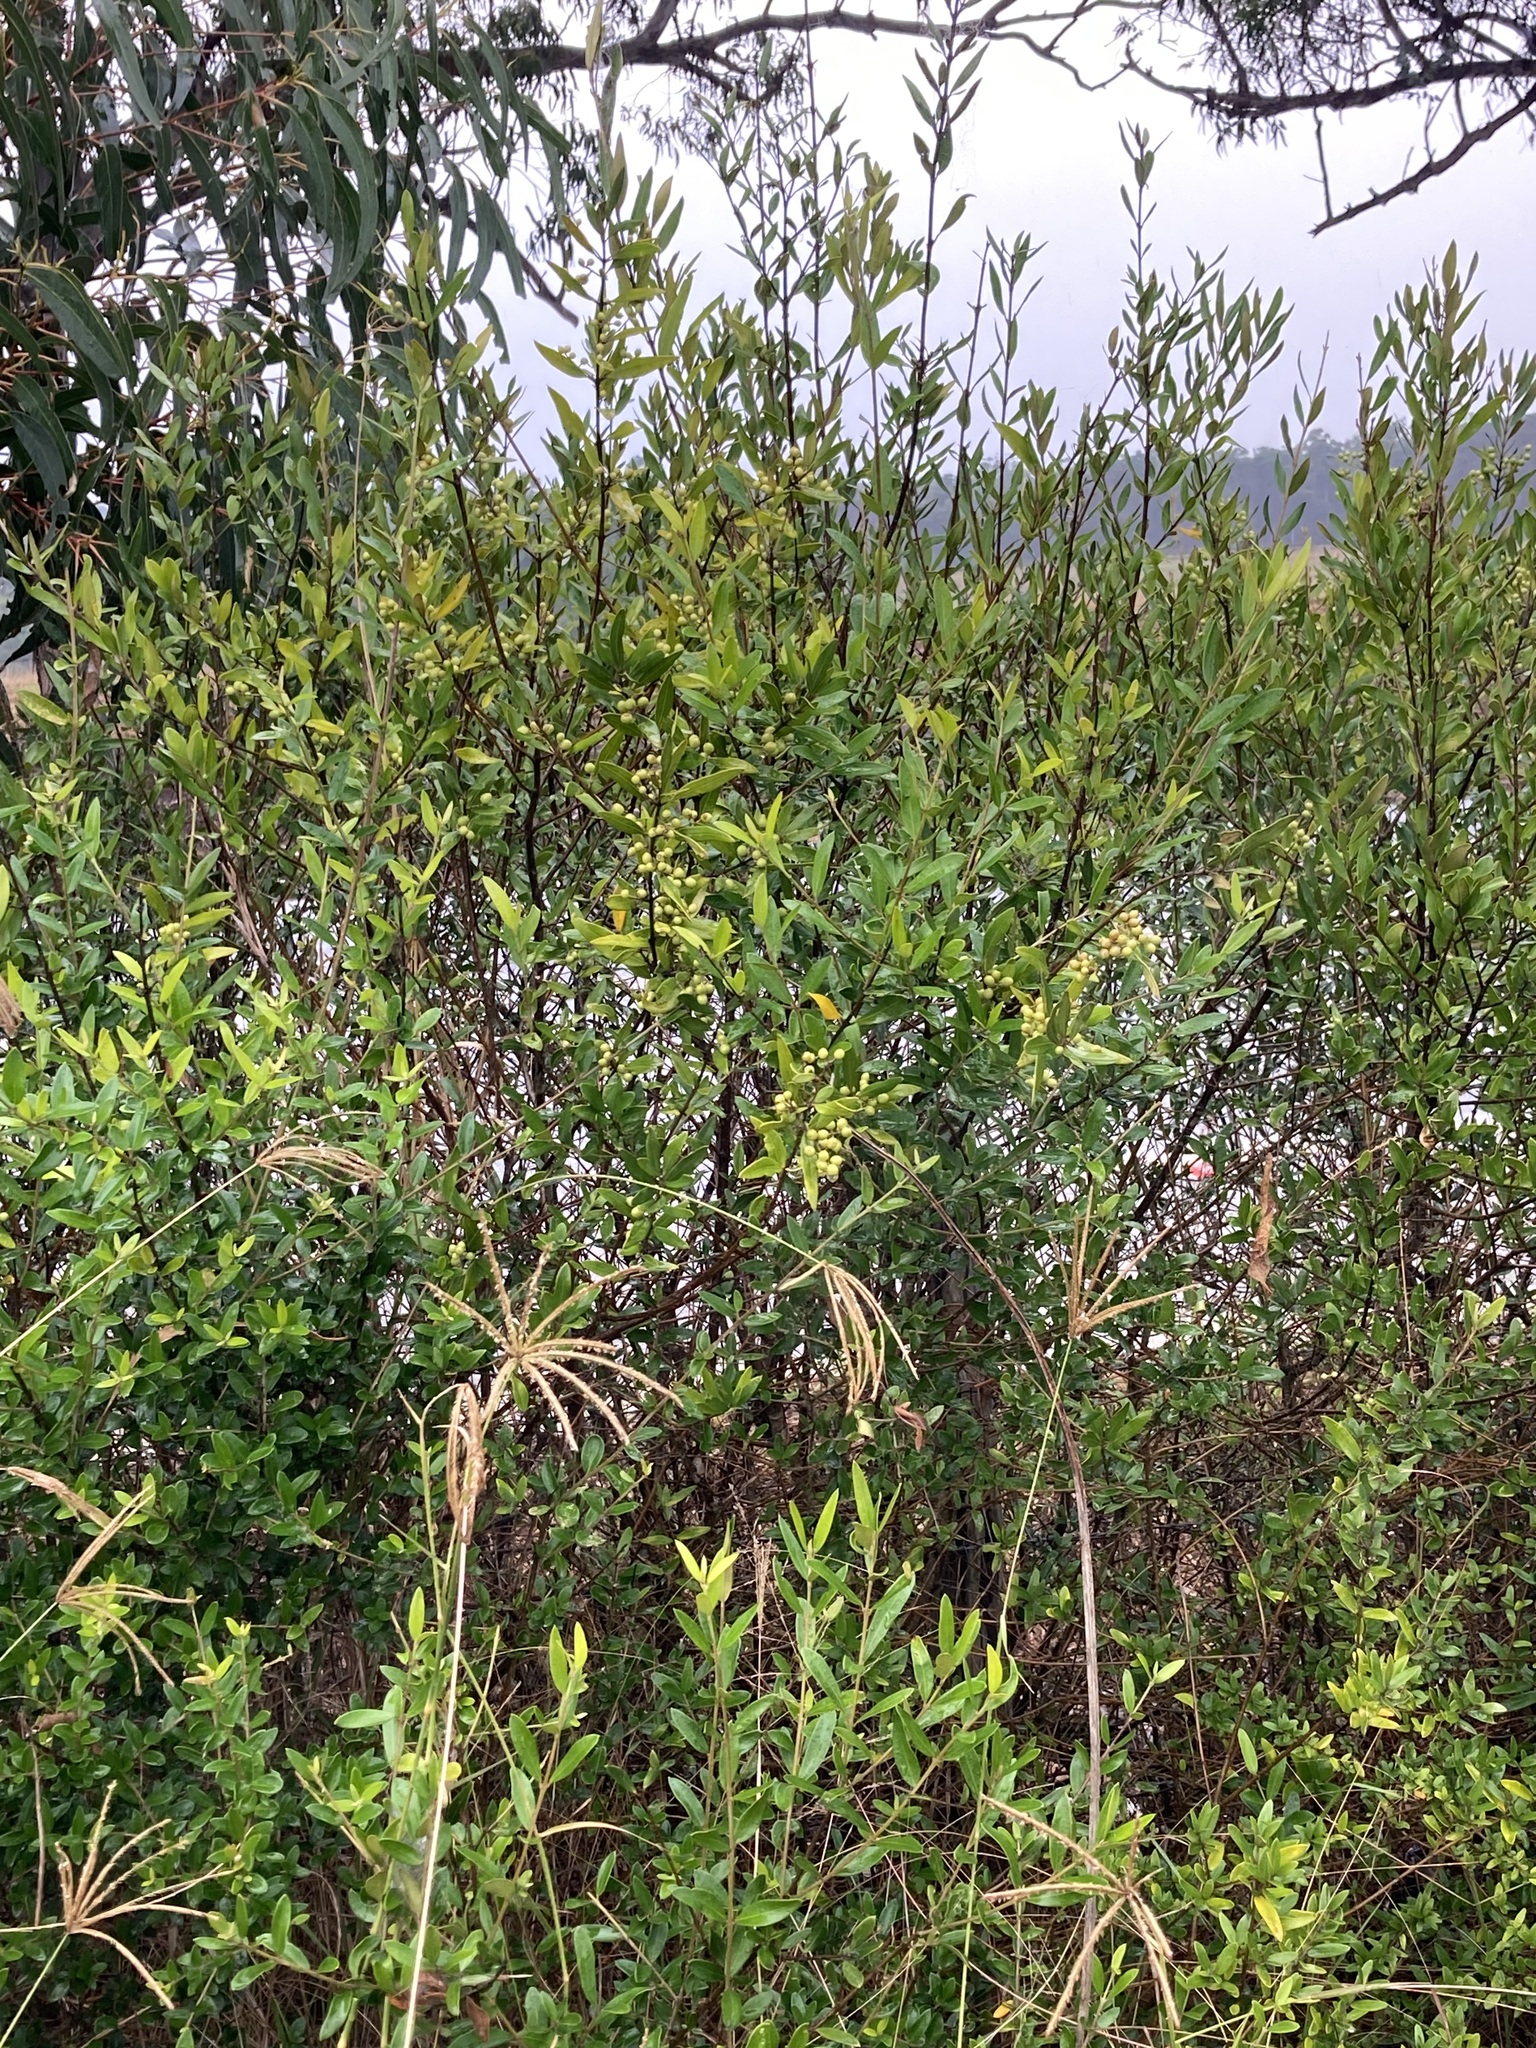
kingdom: Plantae
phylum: Tracheophyta
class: Magnoliopsida
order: Lamiales
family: Oleaceae
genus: Olea
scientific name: Olea europaea
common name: Olive
